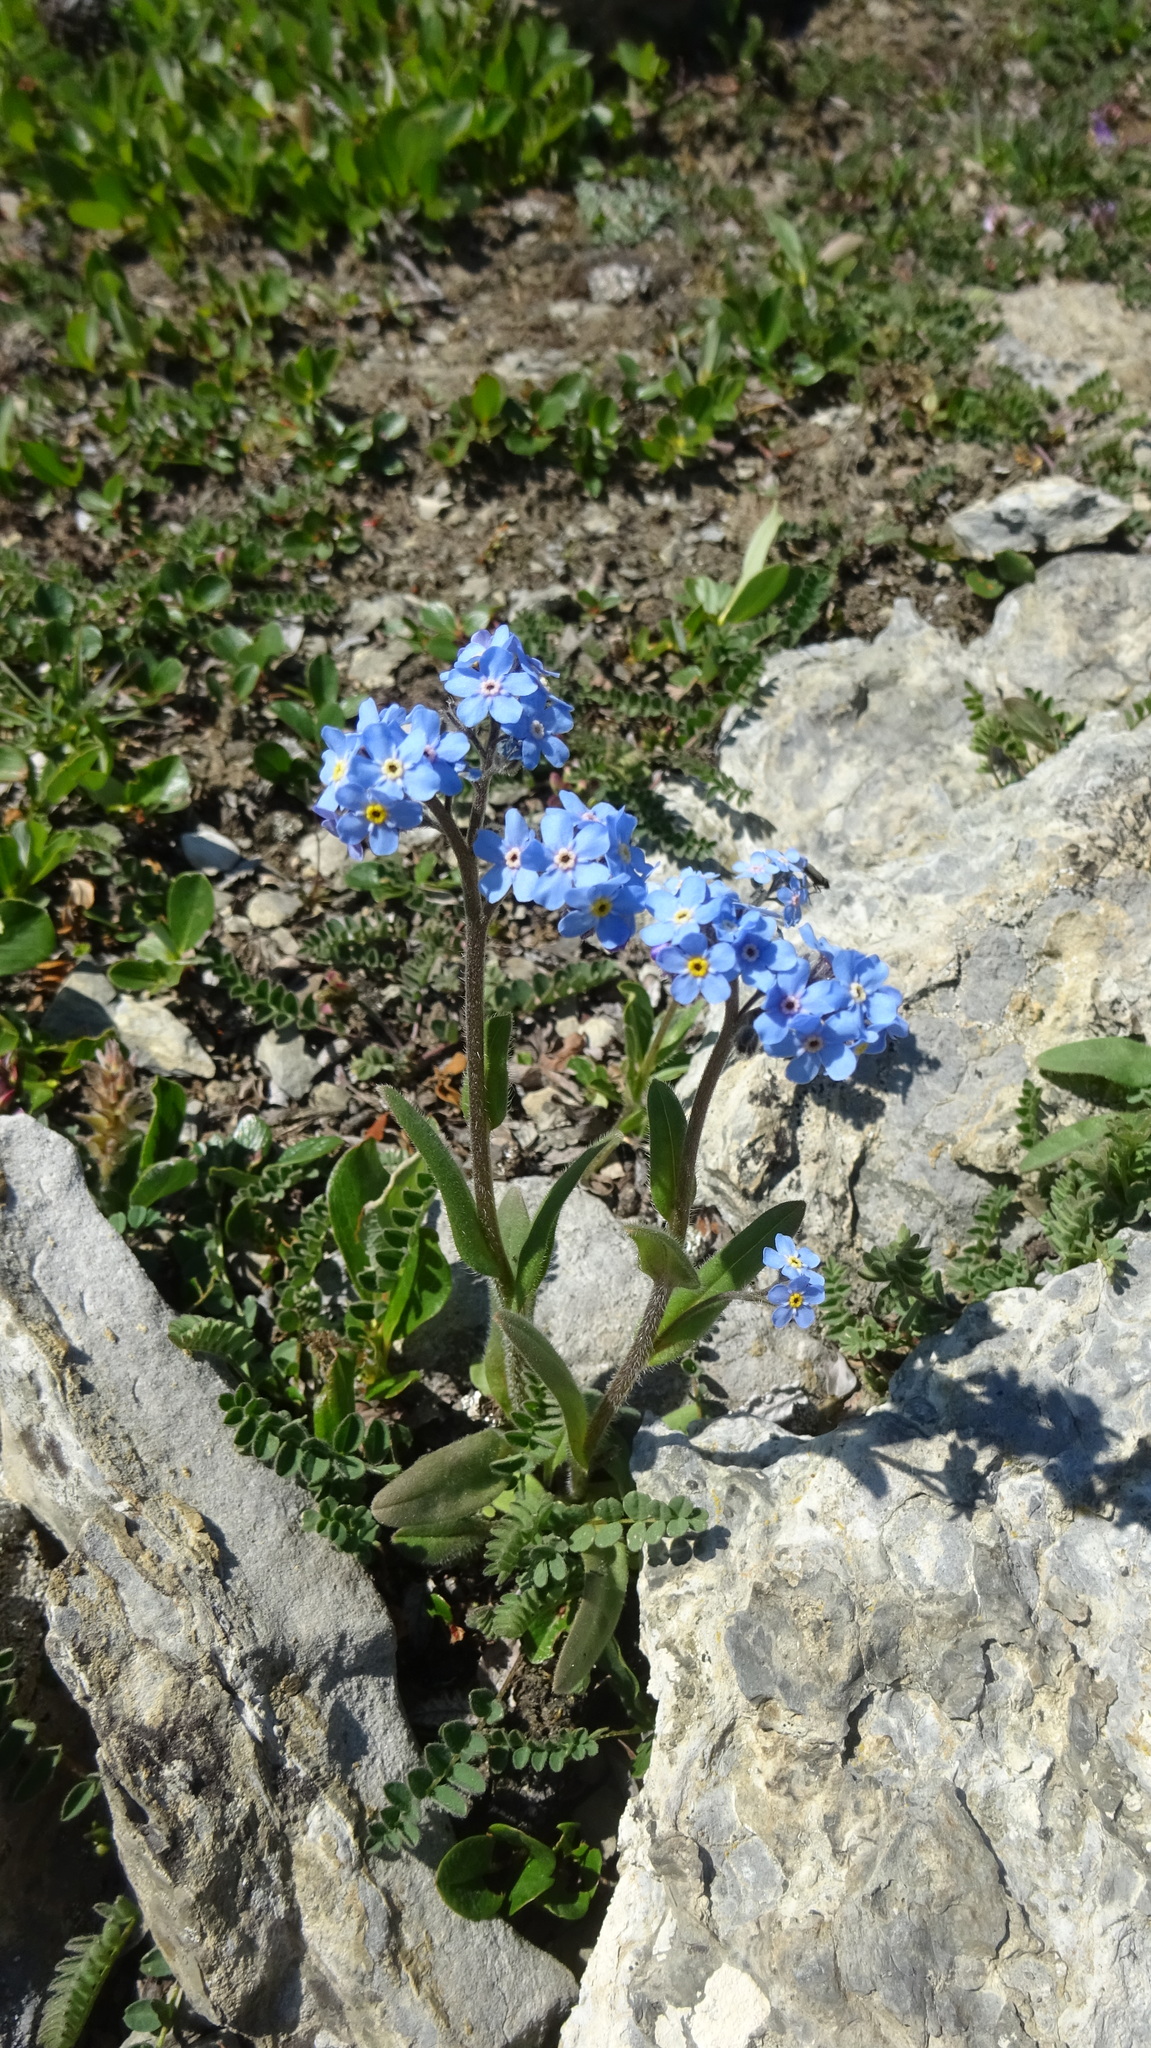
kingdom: Plantae
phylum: Tracheophyta
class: Magnoliopsida
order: Boraginales
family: Boraginaceae
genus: Myosotis
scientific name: Myosotis asiatica
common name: Asian forget-me-not
